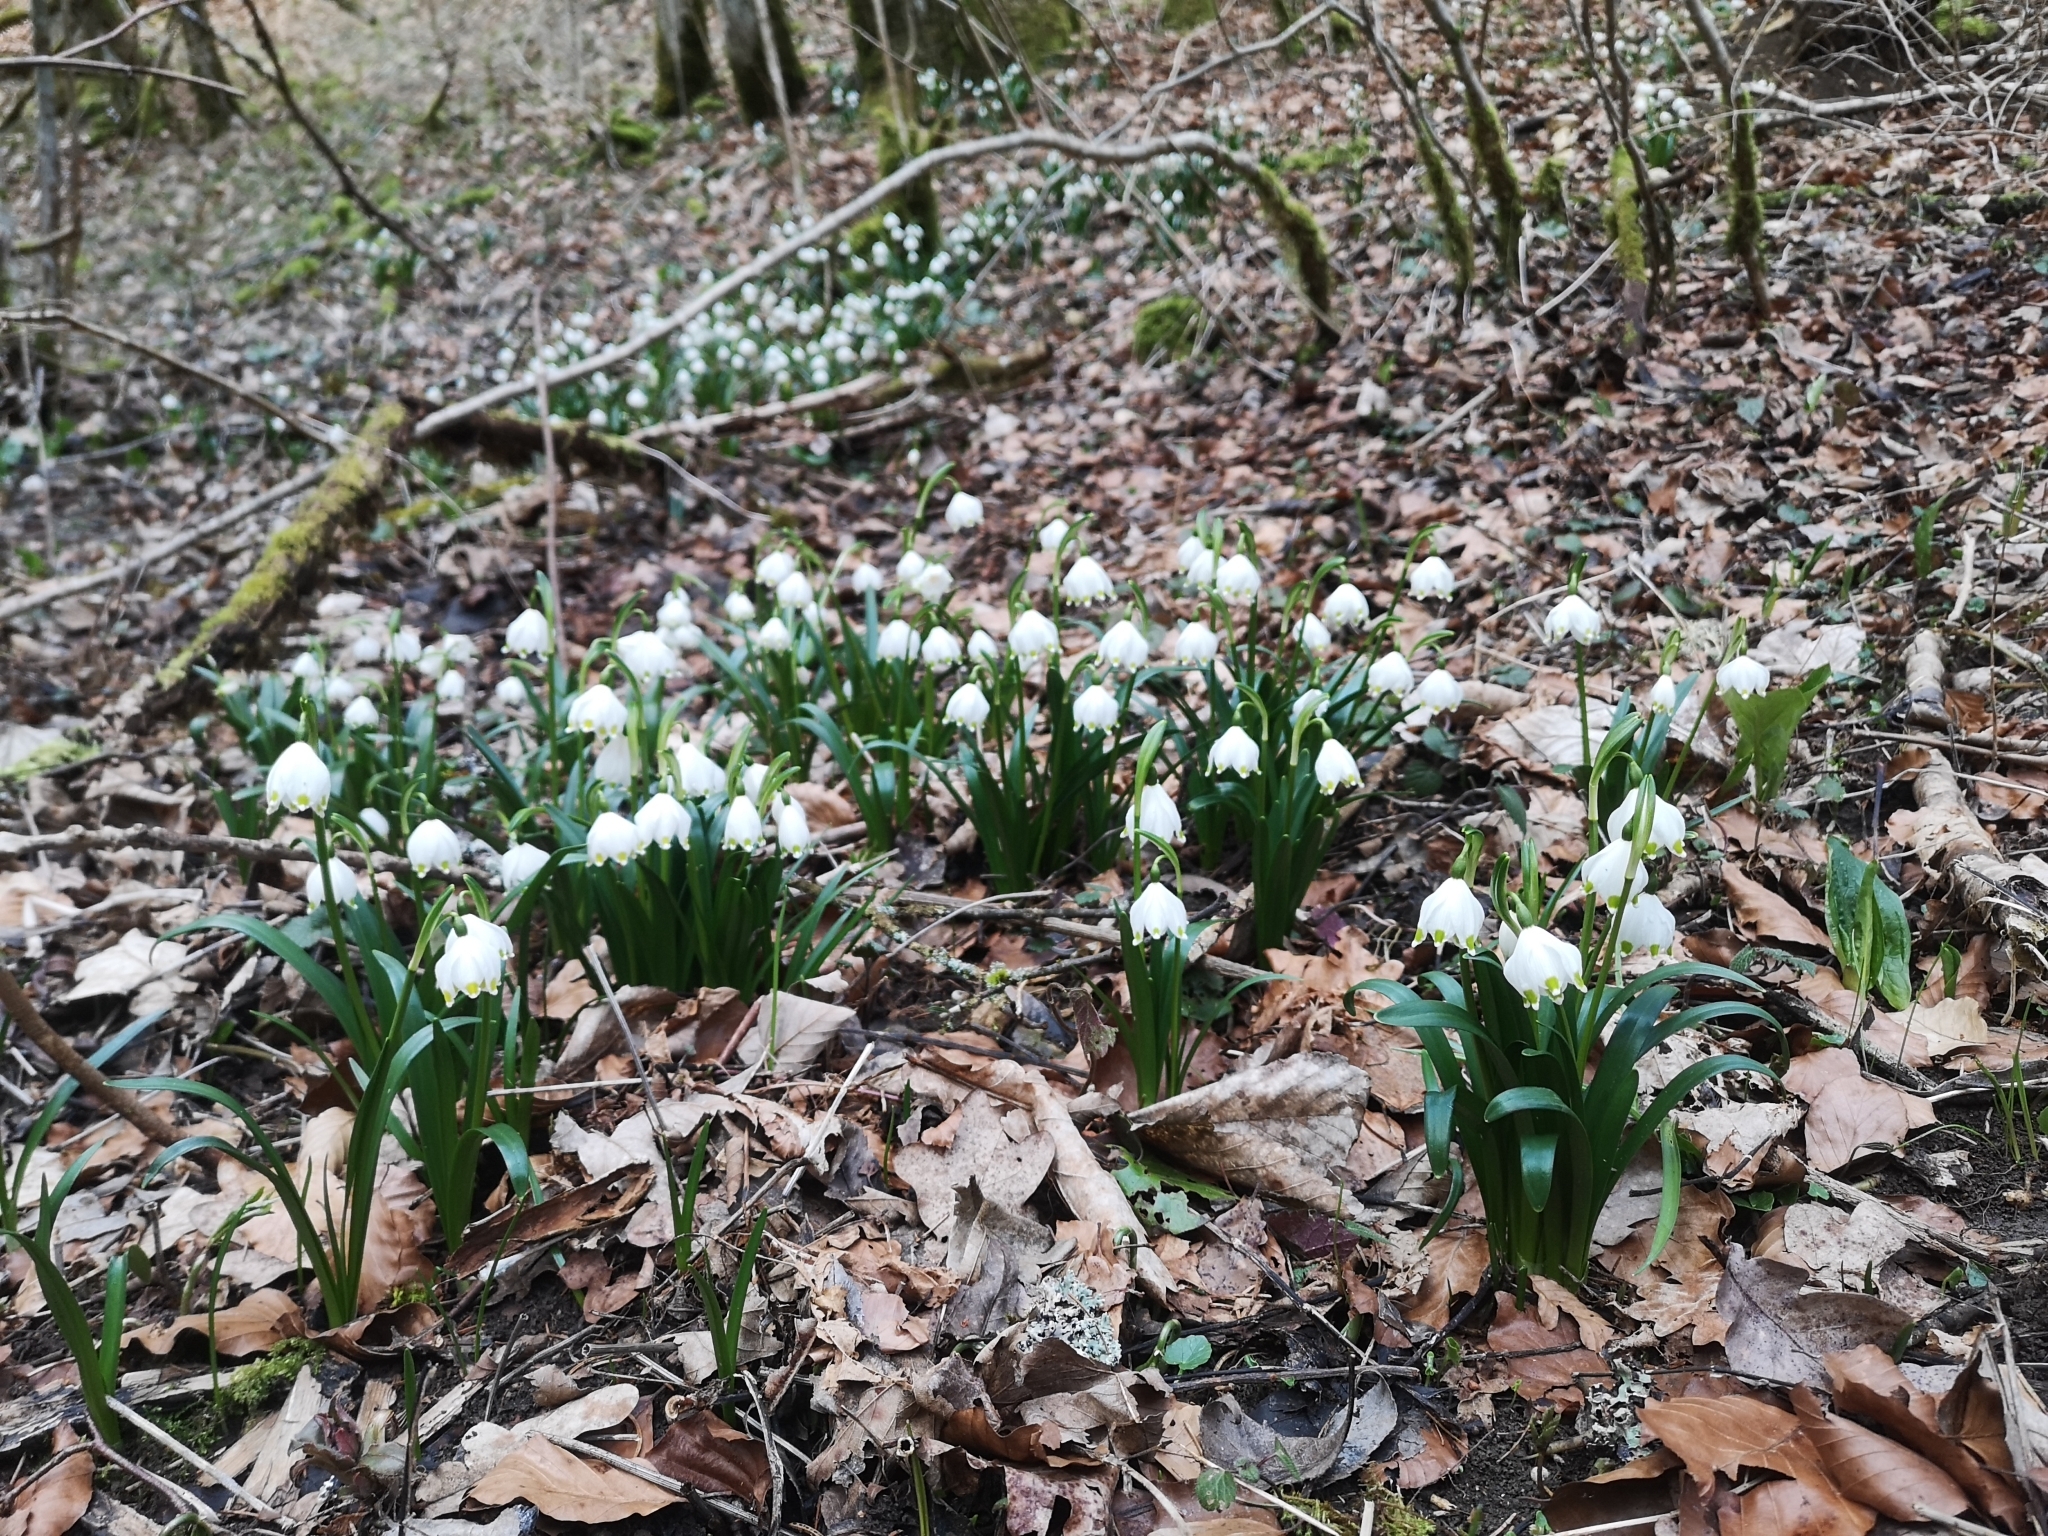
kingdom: Plantae
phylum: Tracheophyta
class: Liliopsida
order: Asparagales
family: Amaryllidaceae
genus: Leucojum
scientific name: Leucojum vernum
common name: Spring snowflake
